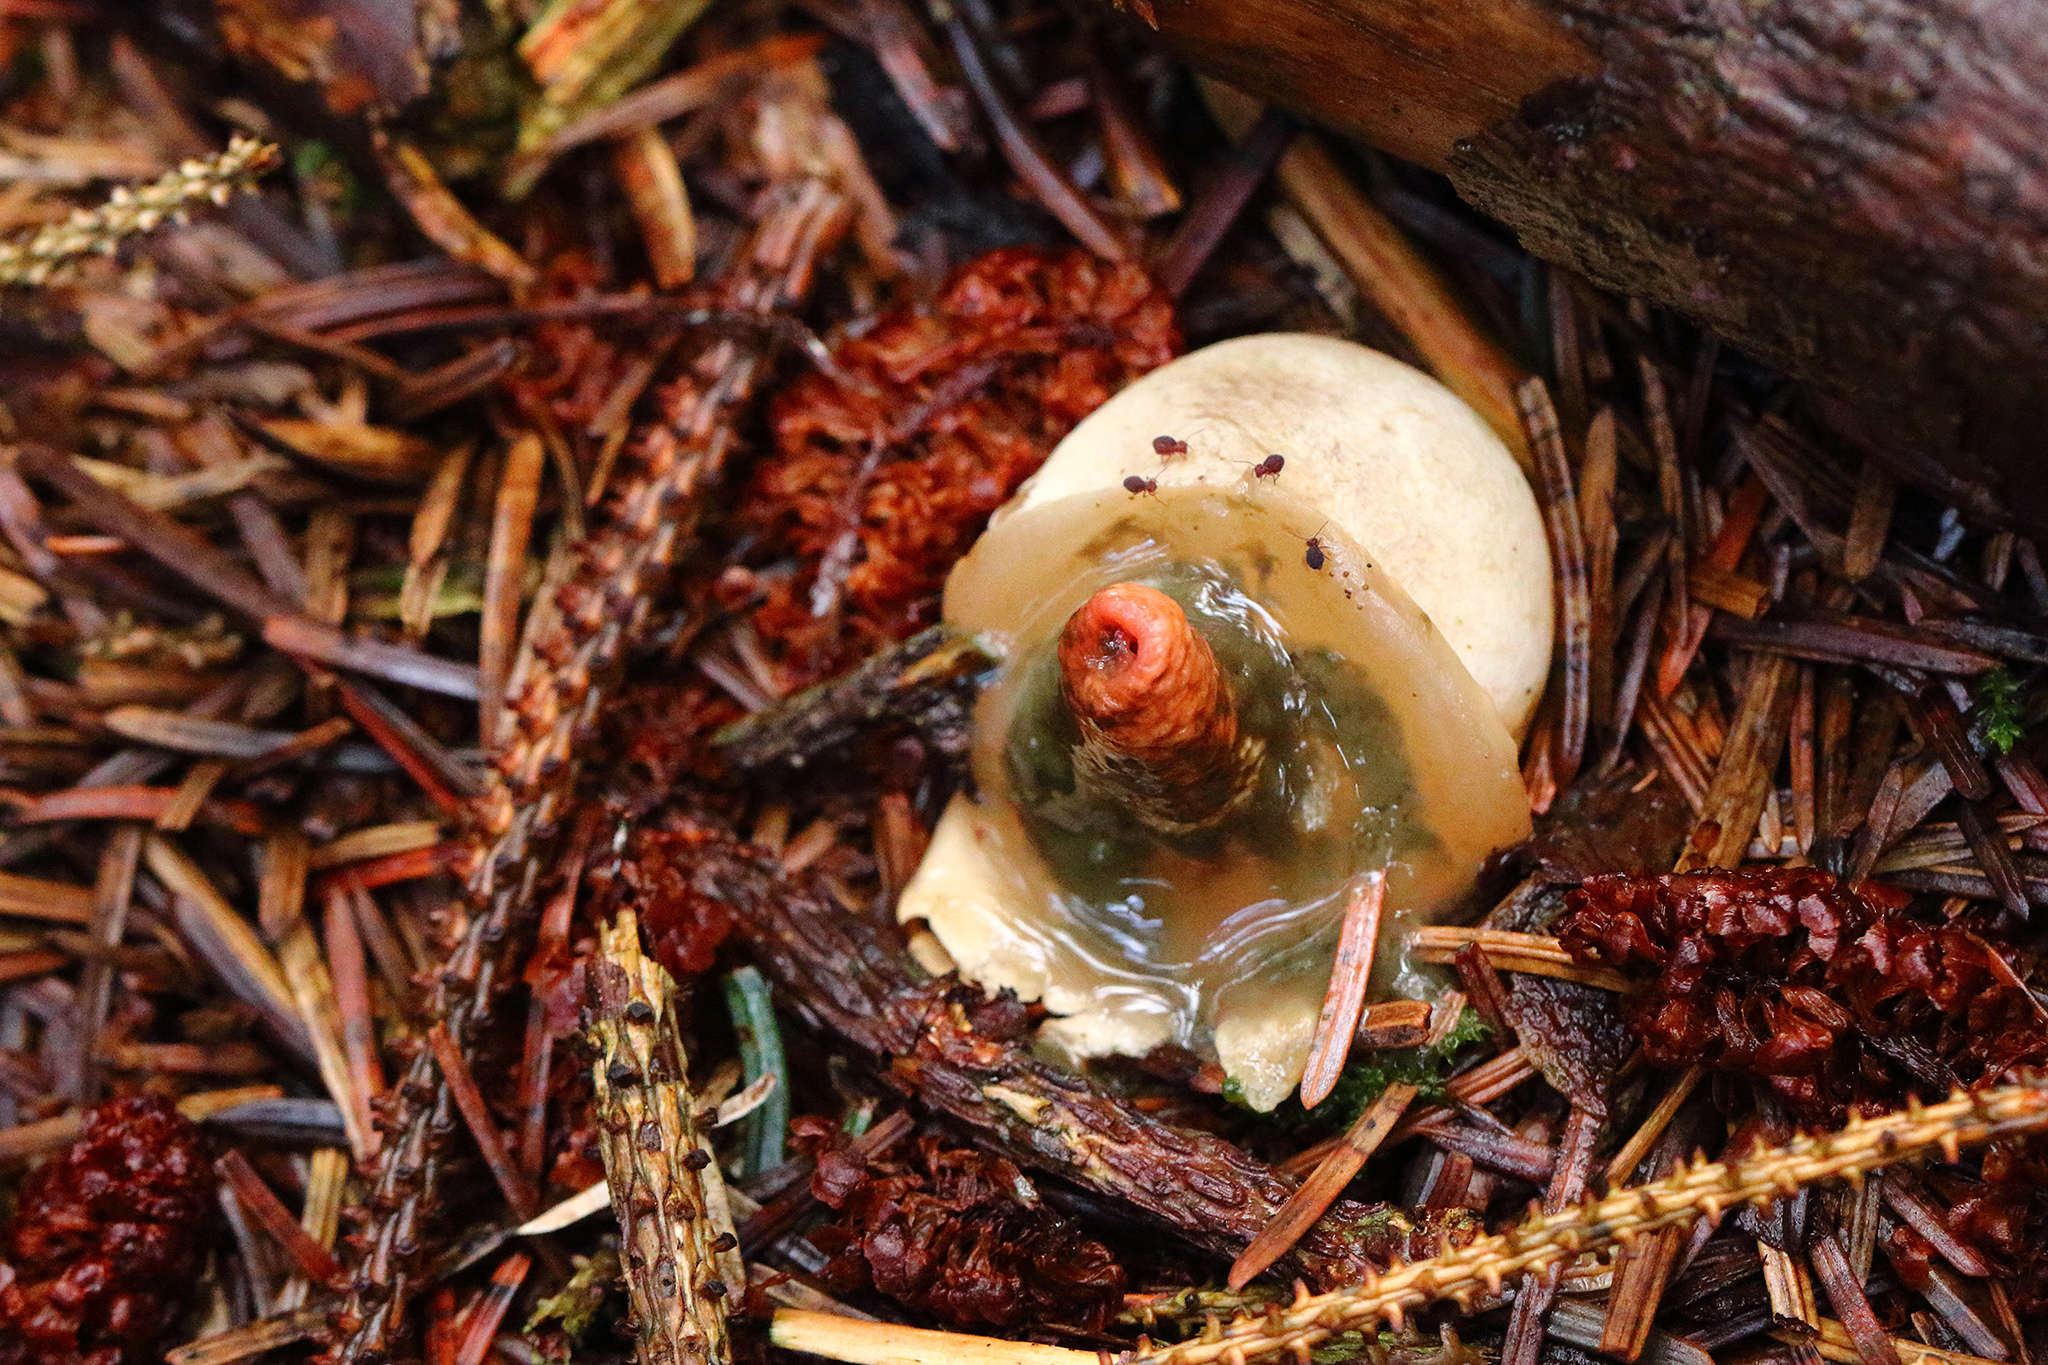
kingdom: Fungi
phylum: Basidiomycota
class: Agaricomycetes
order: Phallales
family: Phallaceae
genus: Mutinus
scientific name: Mutinus caninus
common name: Dog stinkhorn
